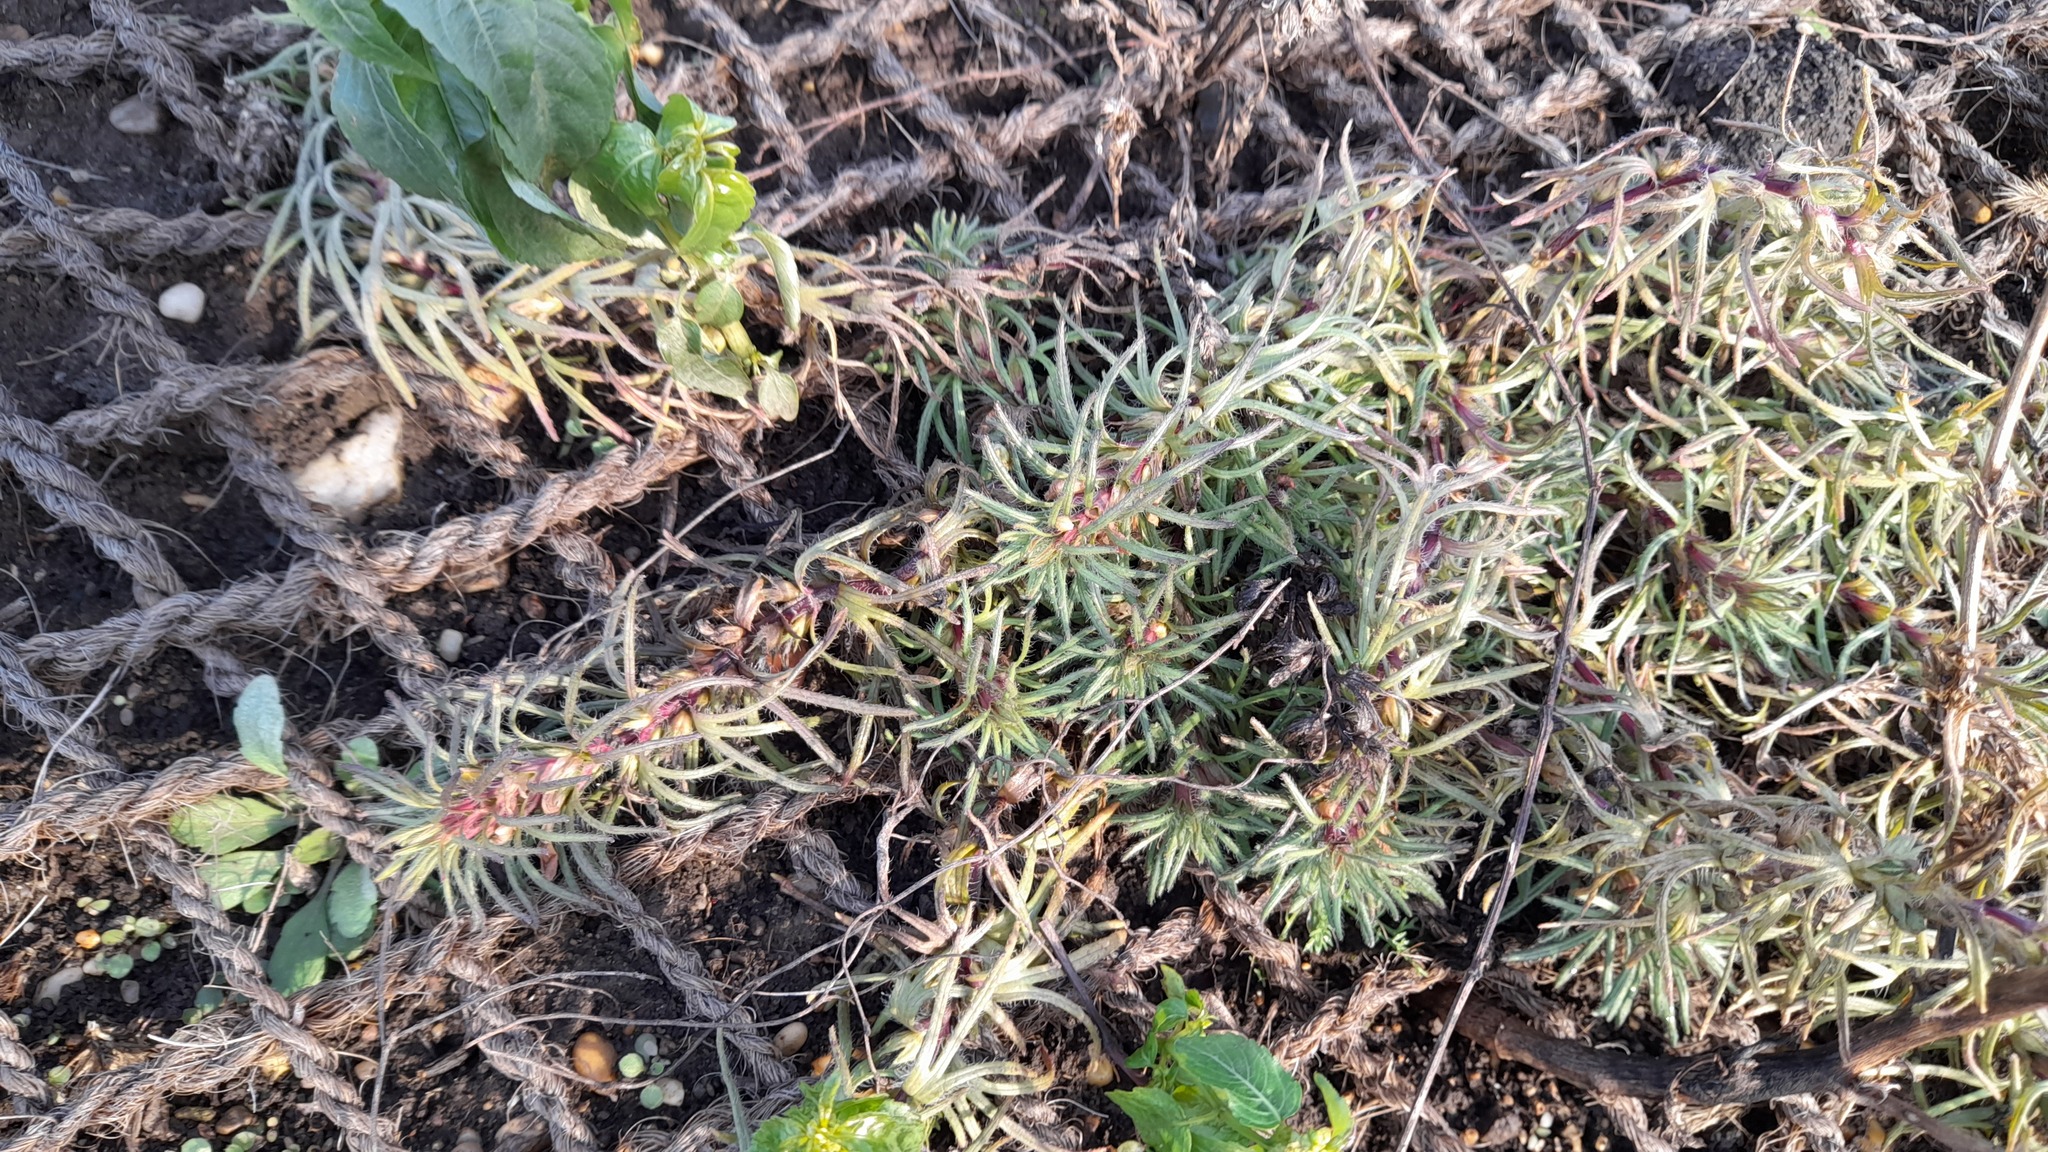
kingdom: Plantae
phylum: Tracheophyta
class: Magnoliopsida
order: Lamiales
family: Lamiaceae
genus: Ajuga
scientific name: Ajuga chamaepitys
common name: Ground-pine
